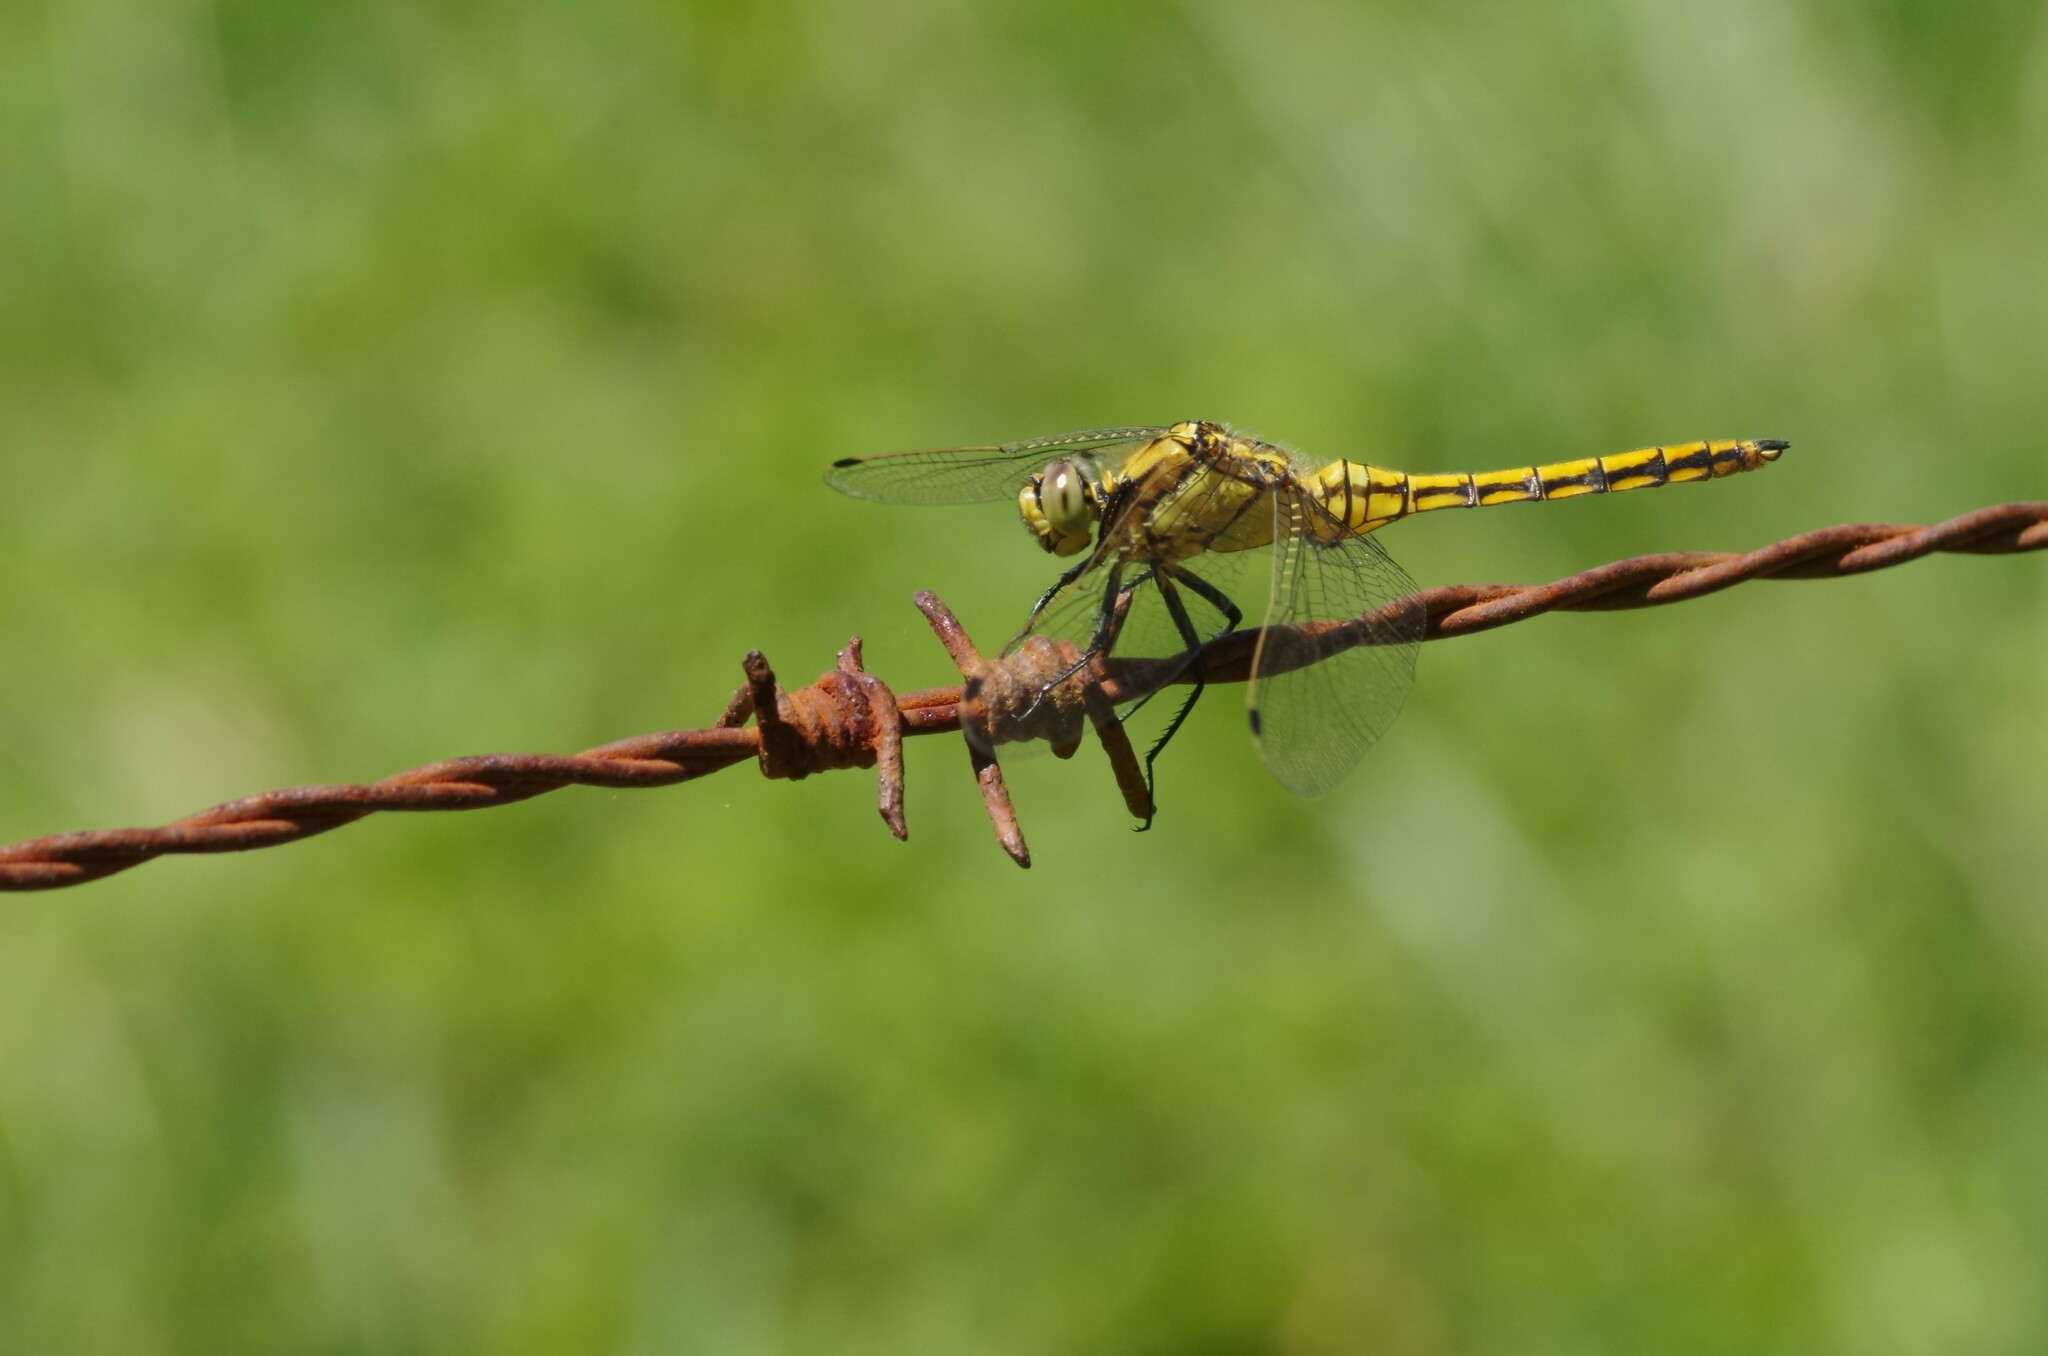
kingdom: Animalia
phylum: Arthropoda
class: Insecta
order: Odonata
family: Libellulidae
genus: Orthetrum
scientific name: Orthetrum cancellatum
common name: Black-tailed skimmer
